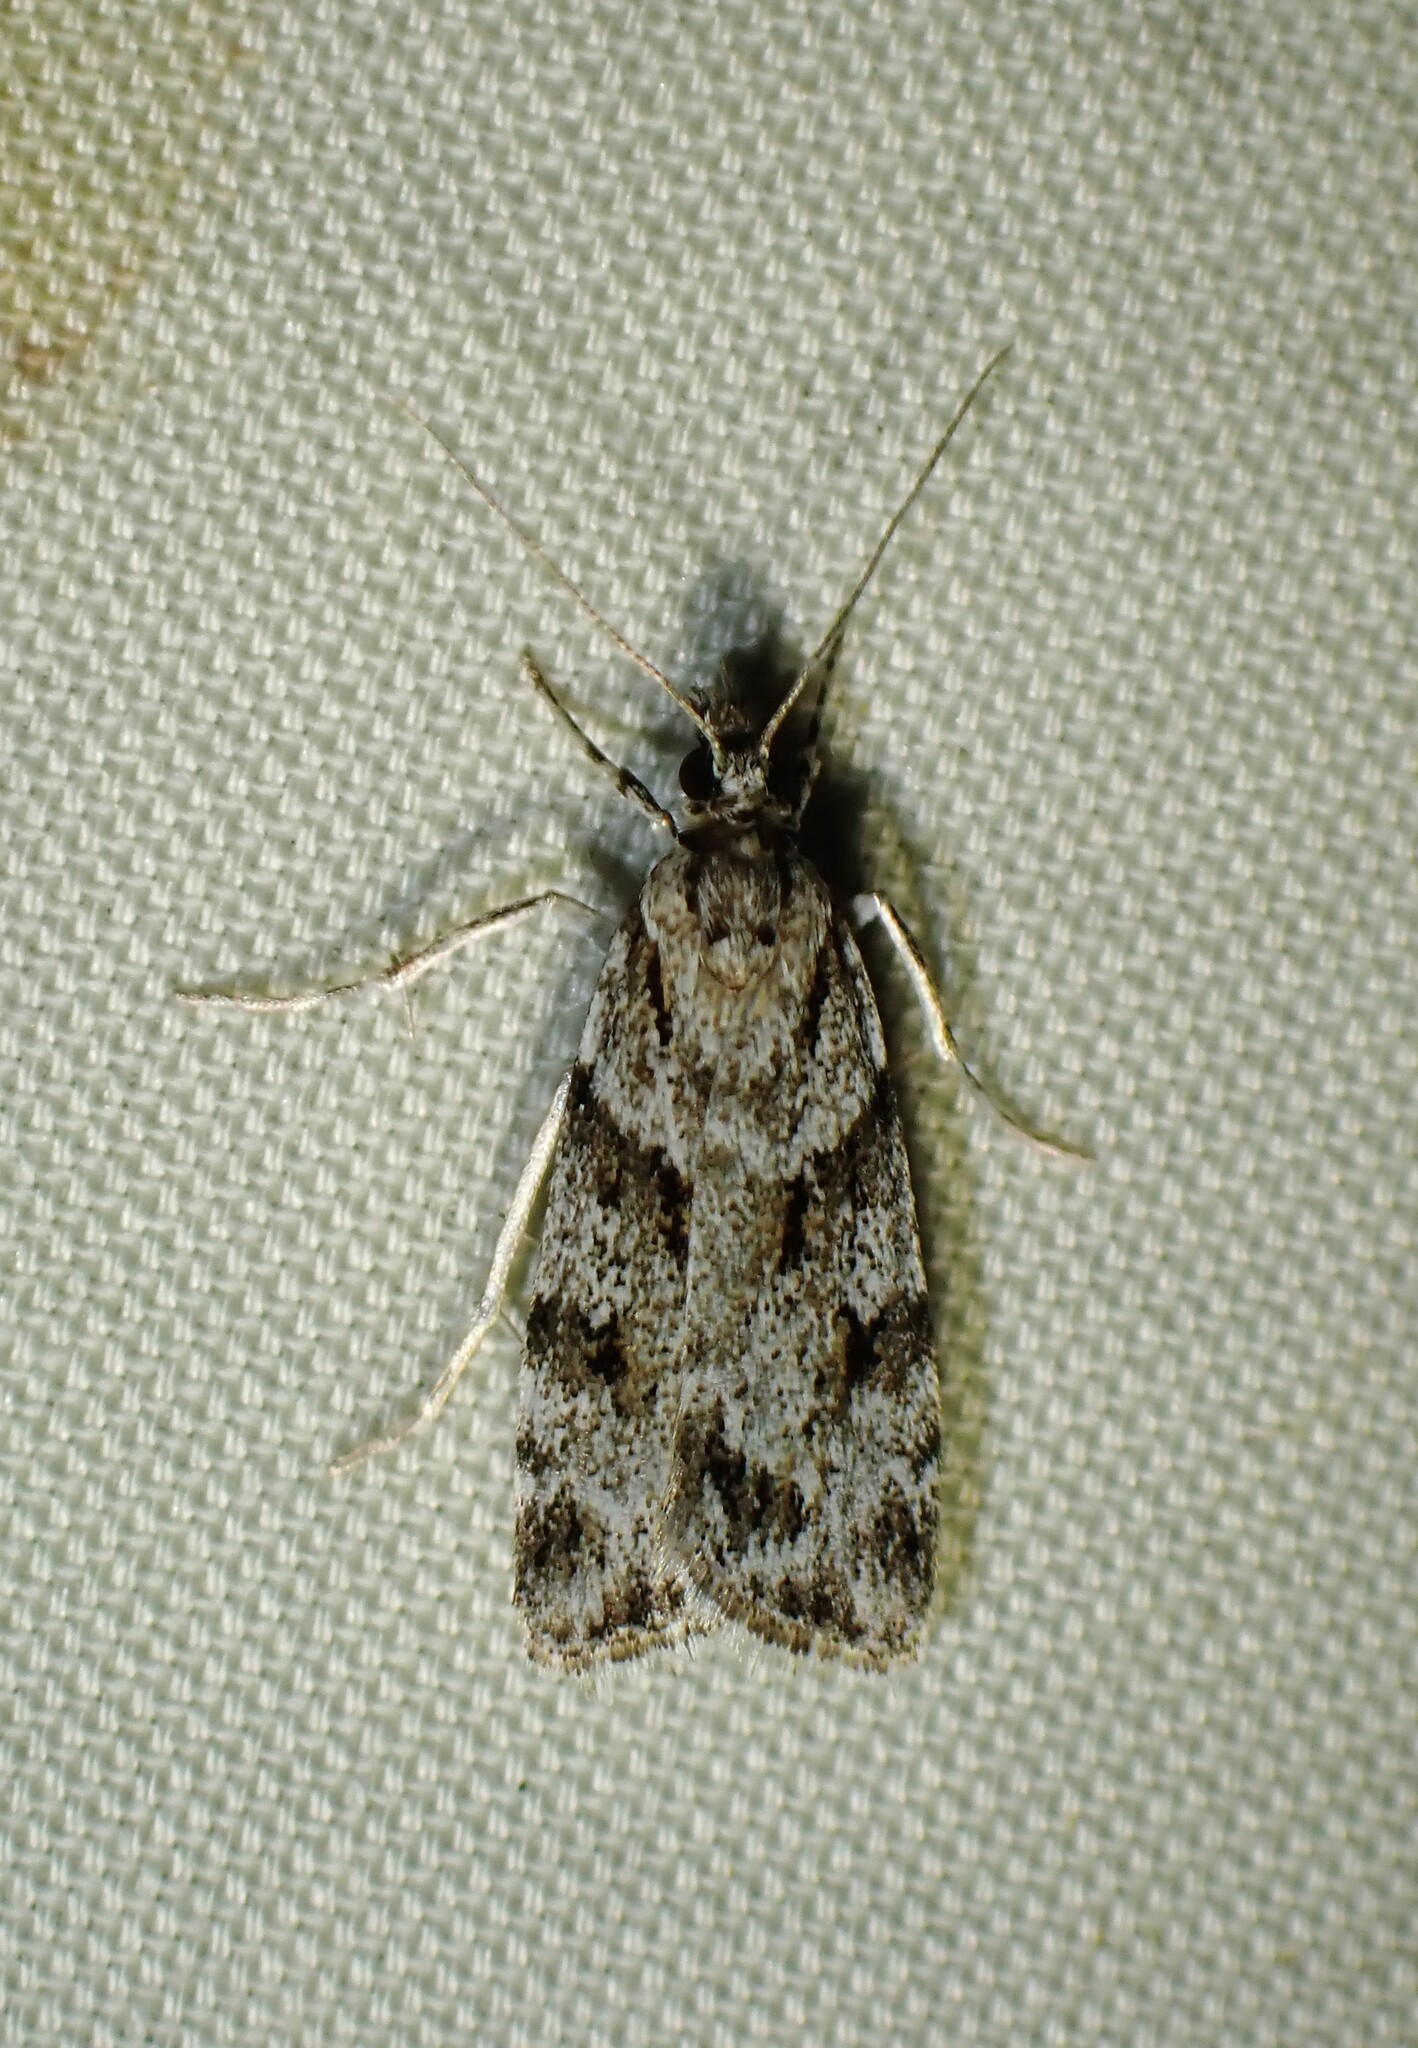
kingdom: Animalia
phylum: Arthropoda
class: Insecta
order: Lepidoptera
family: Crambidae
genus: Scoparia
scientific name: Scoparia biplagialis
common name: Double-striped scoparia moth
